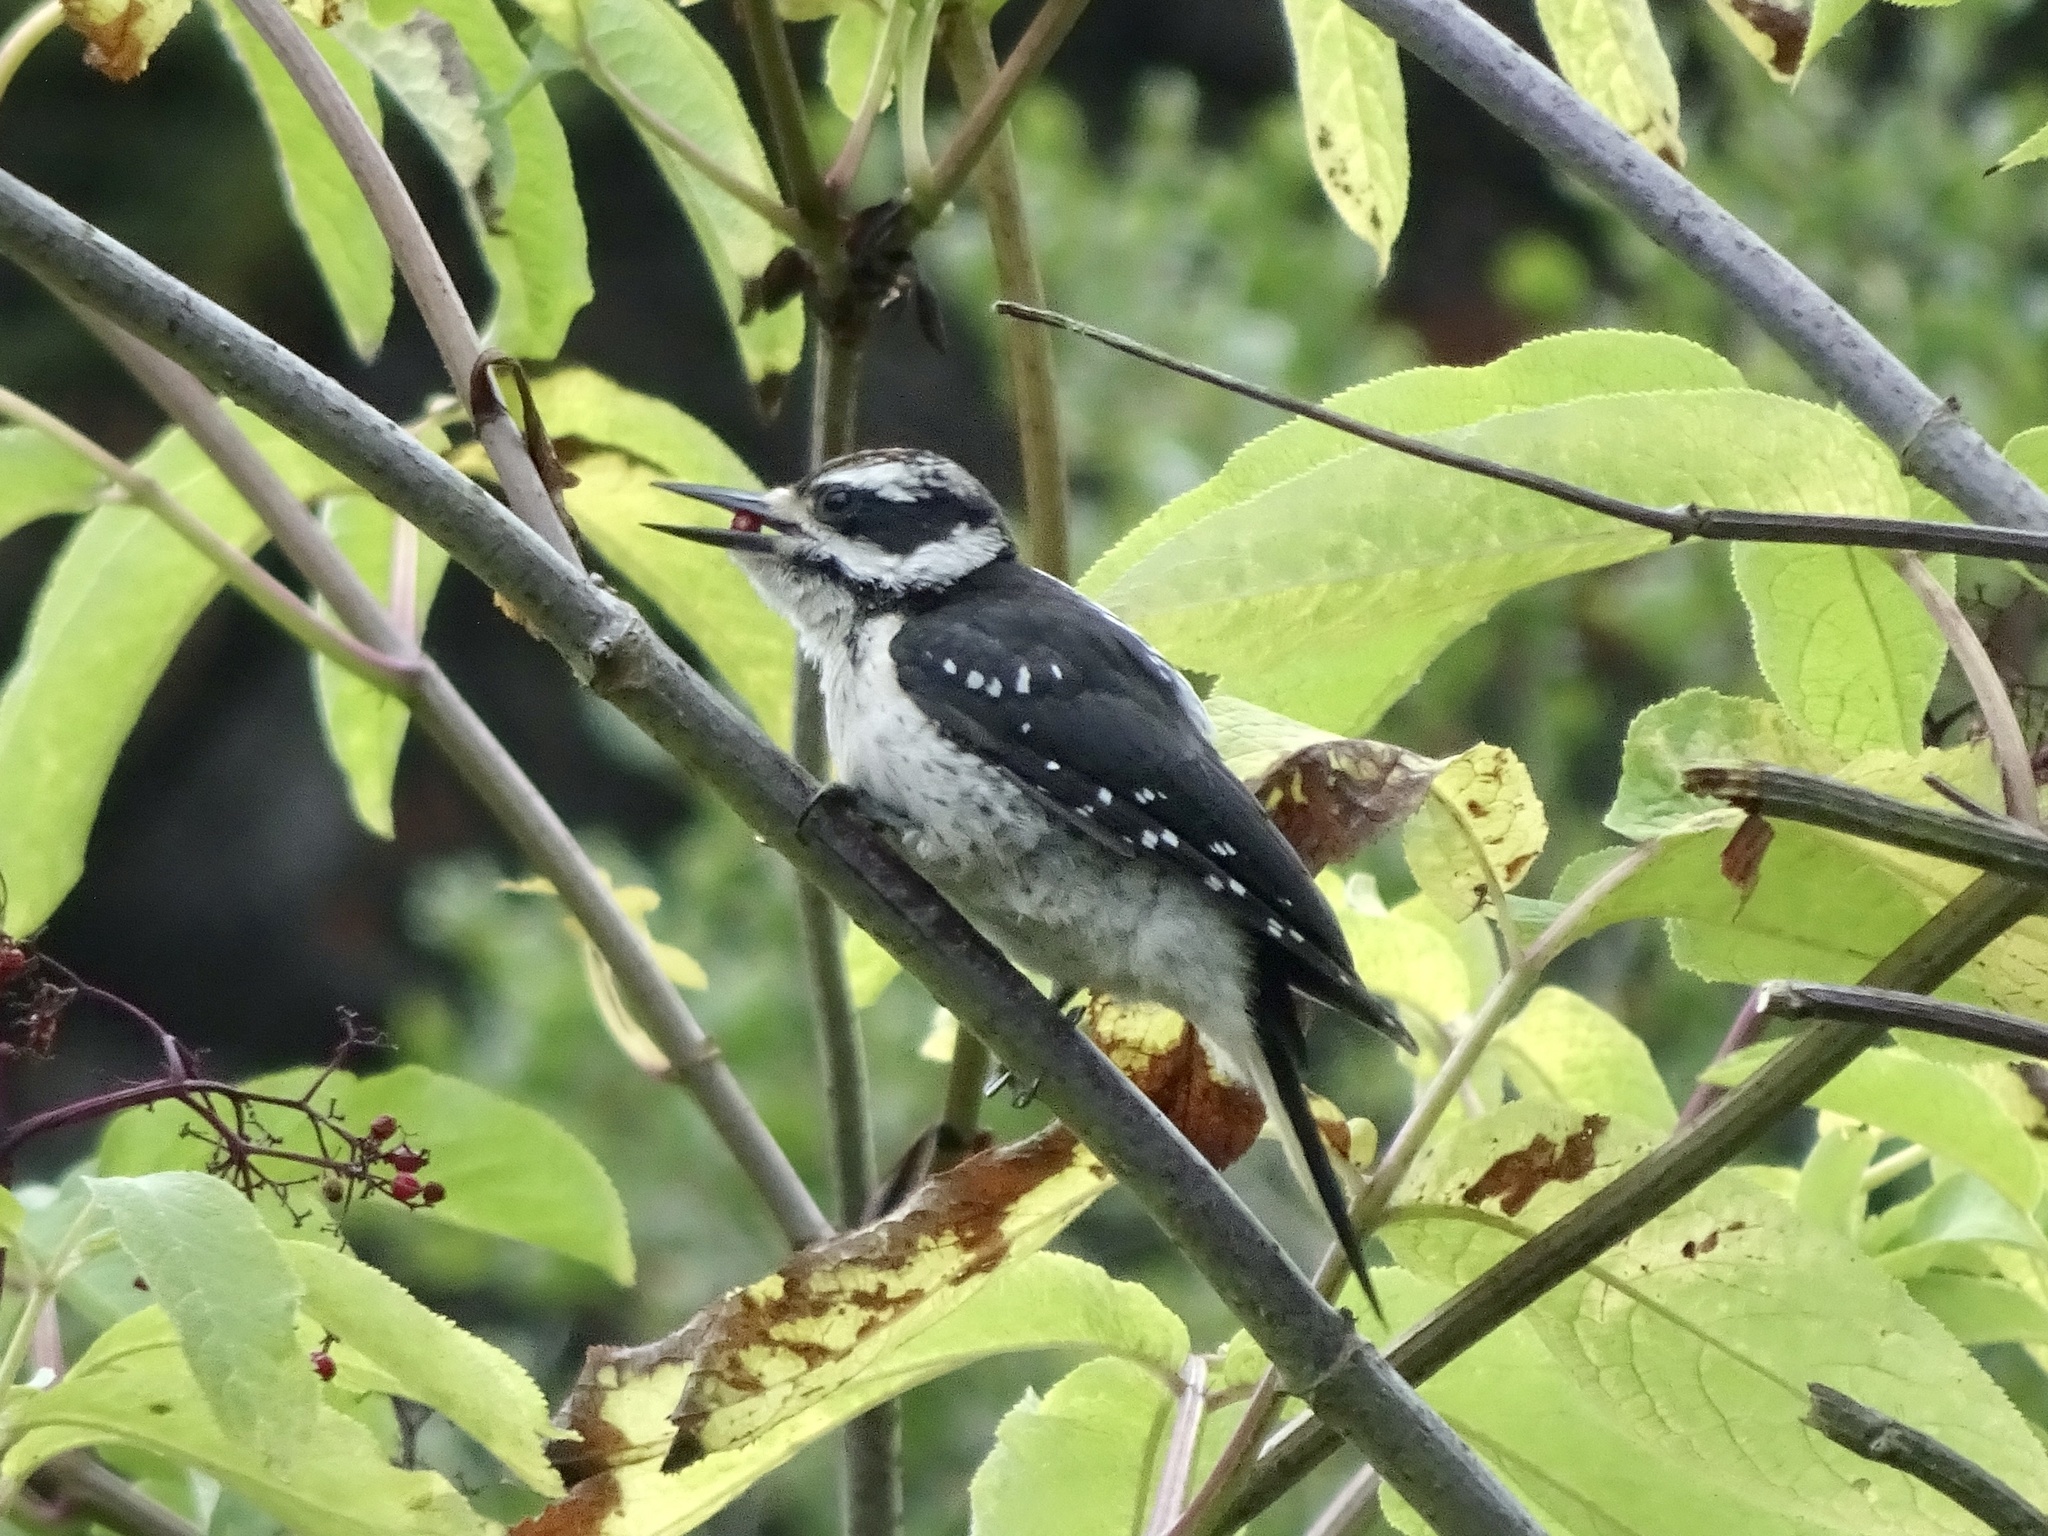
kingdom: Animalia
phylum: Chordata
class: Aves
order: Piciformes
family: Picidae
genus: Leuconotopicus
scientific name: Leuconotopicus villosus
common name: Hairy woodpecker
